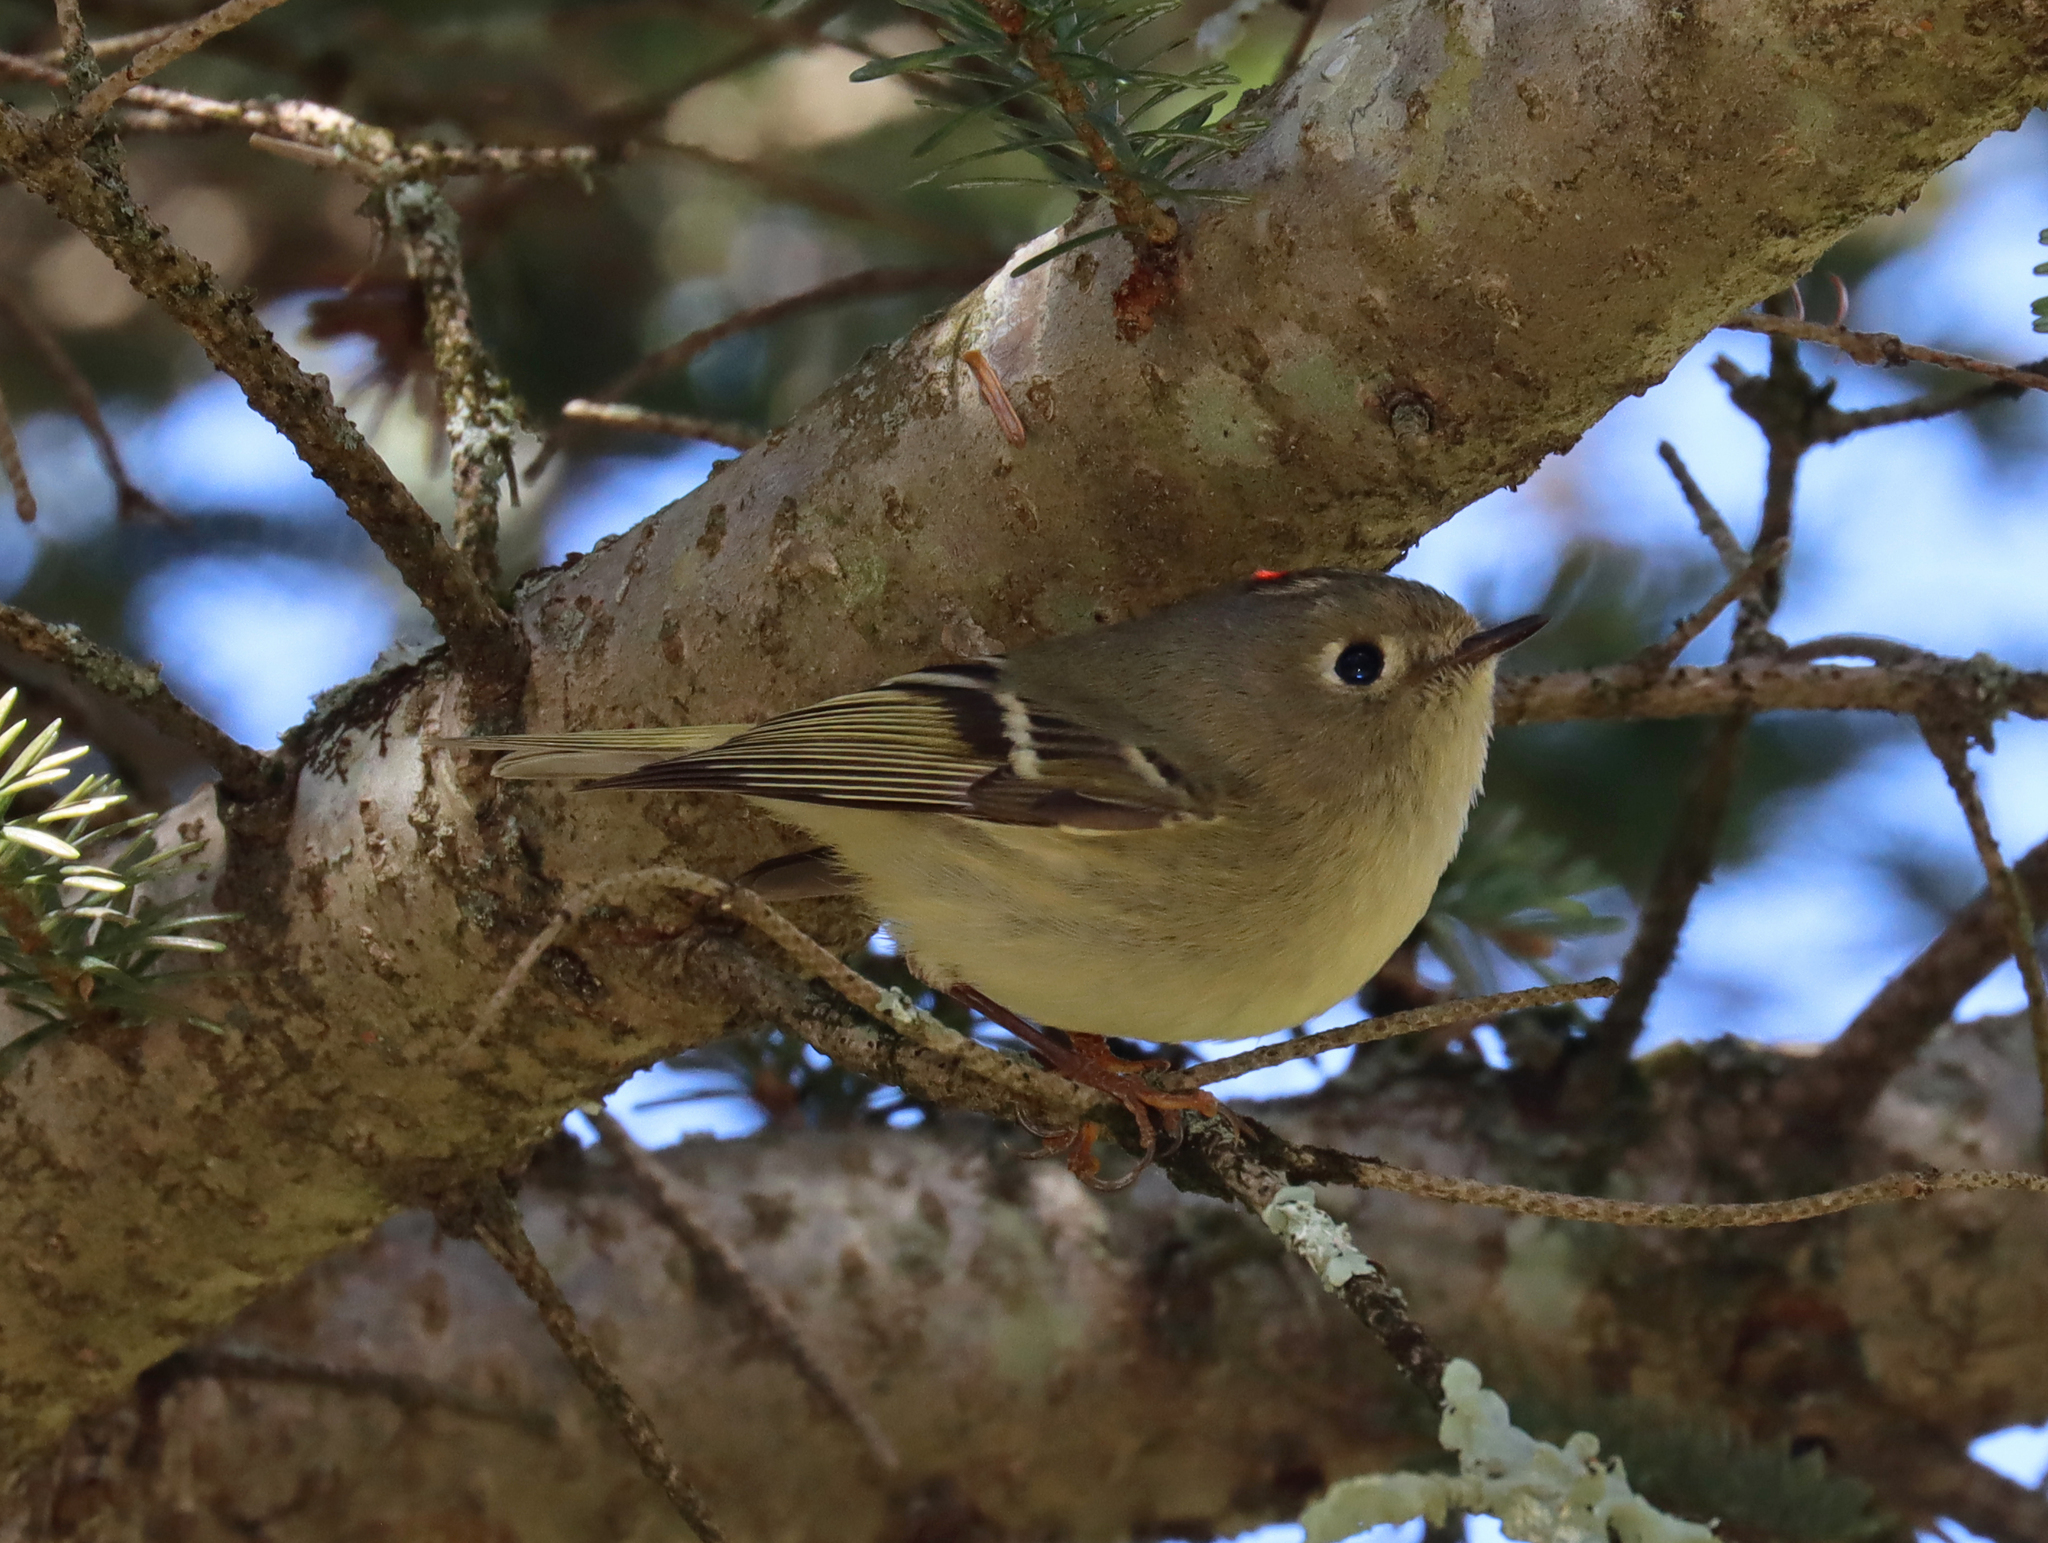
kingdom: Animalia
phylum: Chordata
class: Aves
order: Passeriformes
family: Regulidae
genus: Regulus
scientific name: Regulus calendula
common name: Ruby-crowned kinglet
